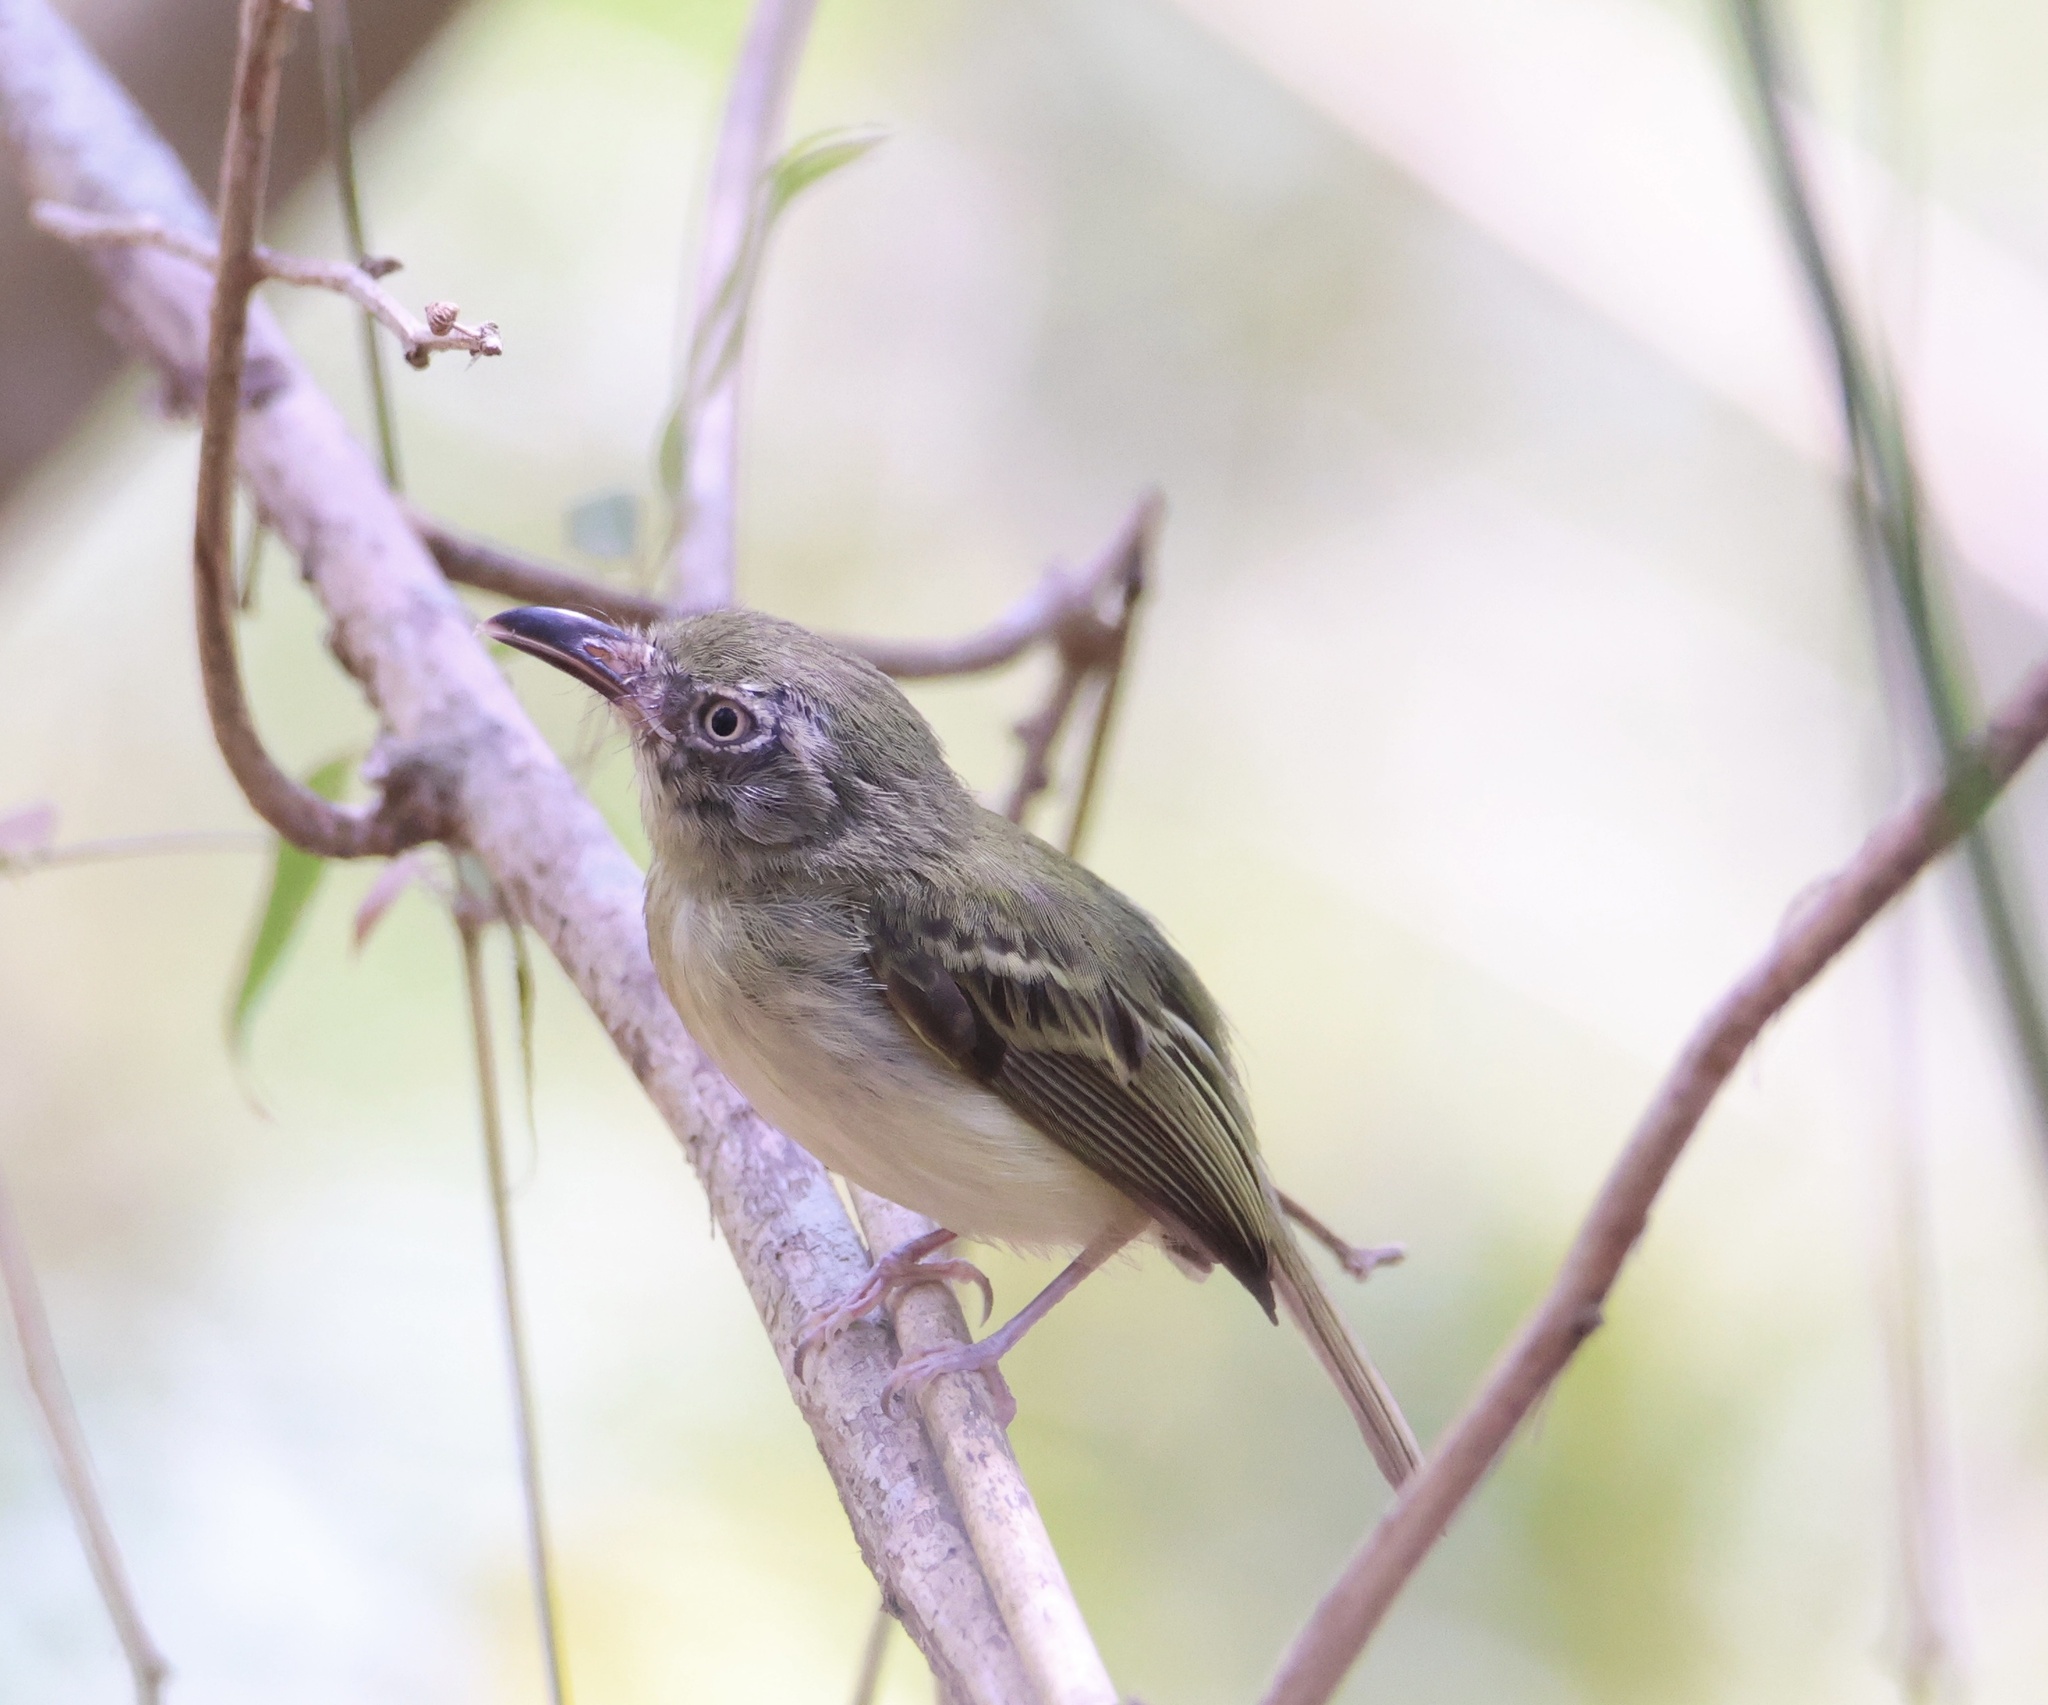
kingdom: Animalia
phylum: Chordata
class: Aves
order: Passeriformes
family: Tyrannidae
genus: Oncostoma
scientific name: Oncostoma olivaceum
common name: Southern bentbill
